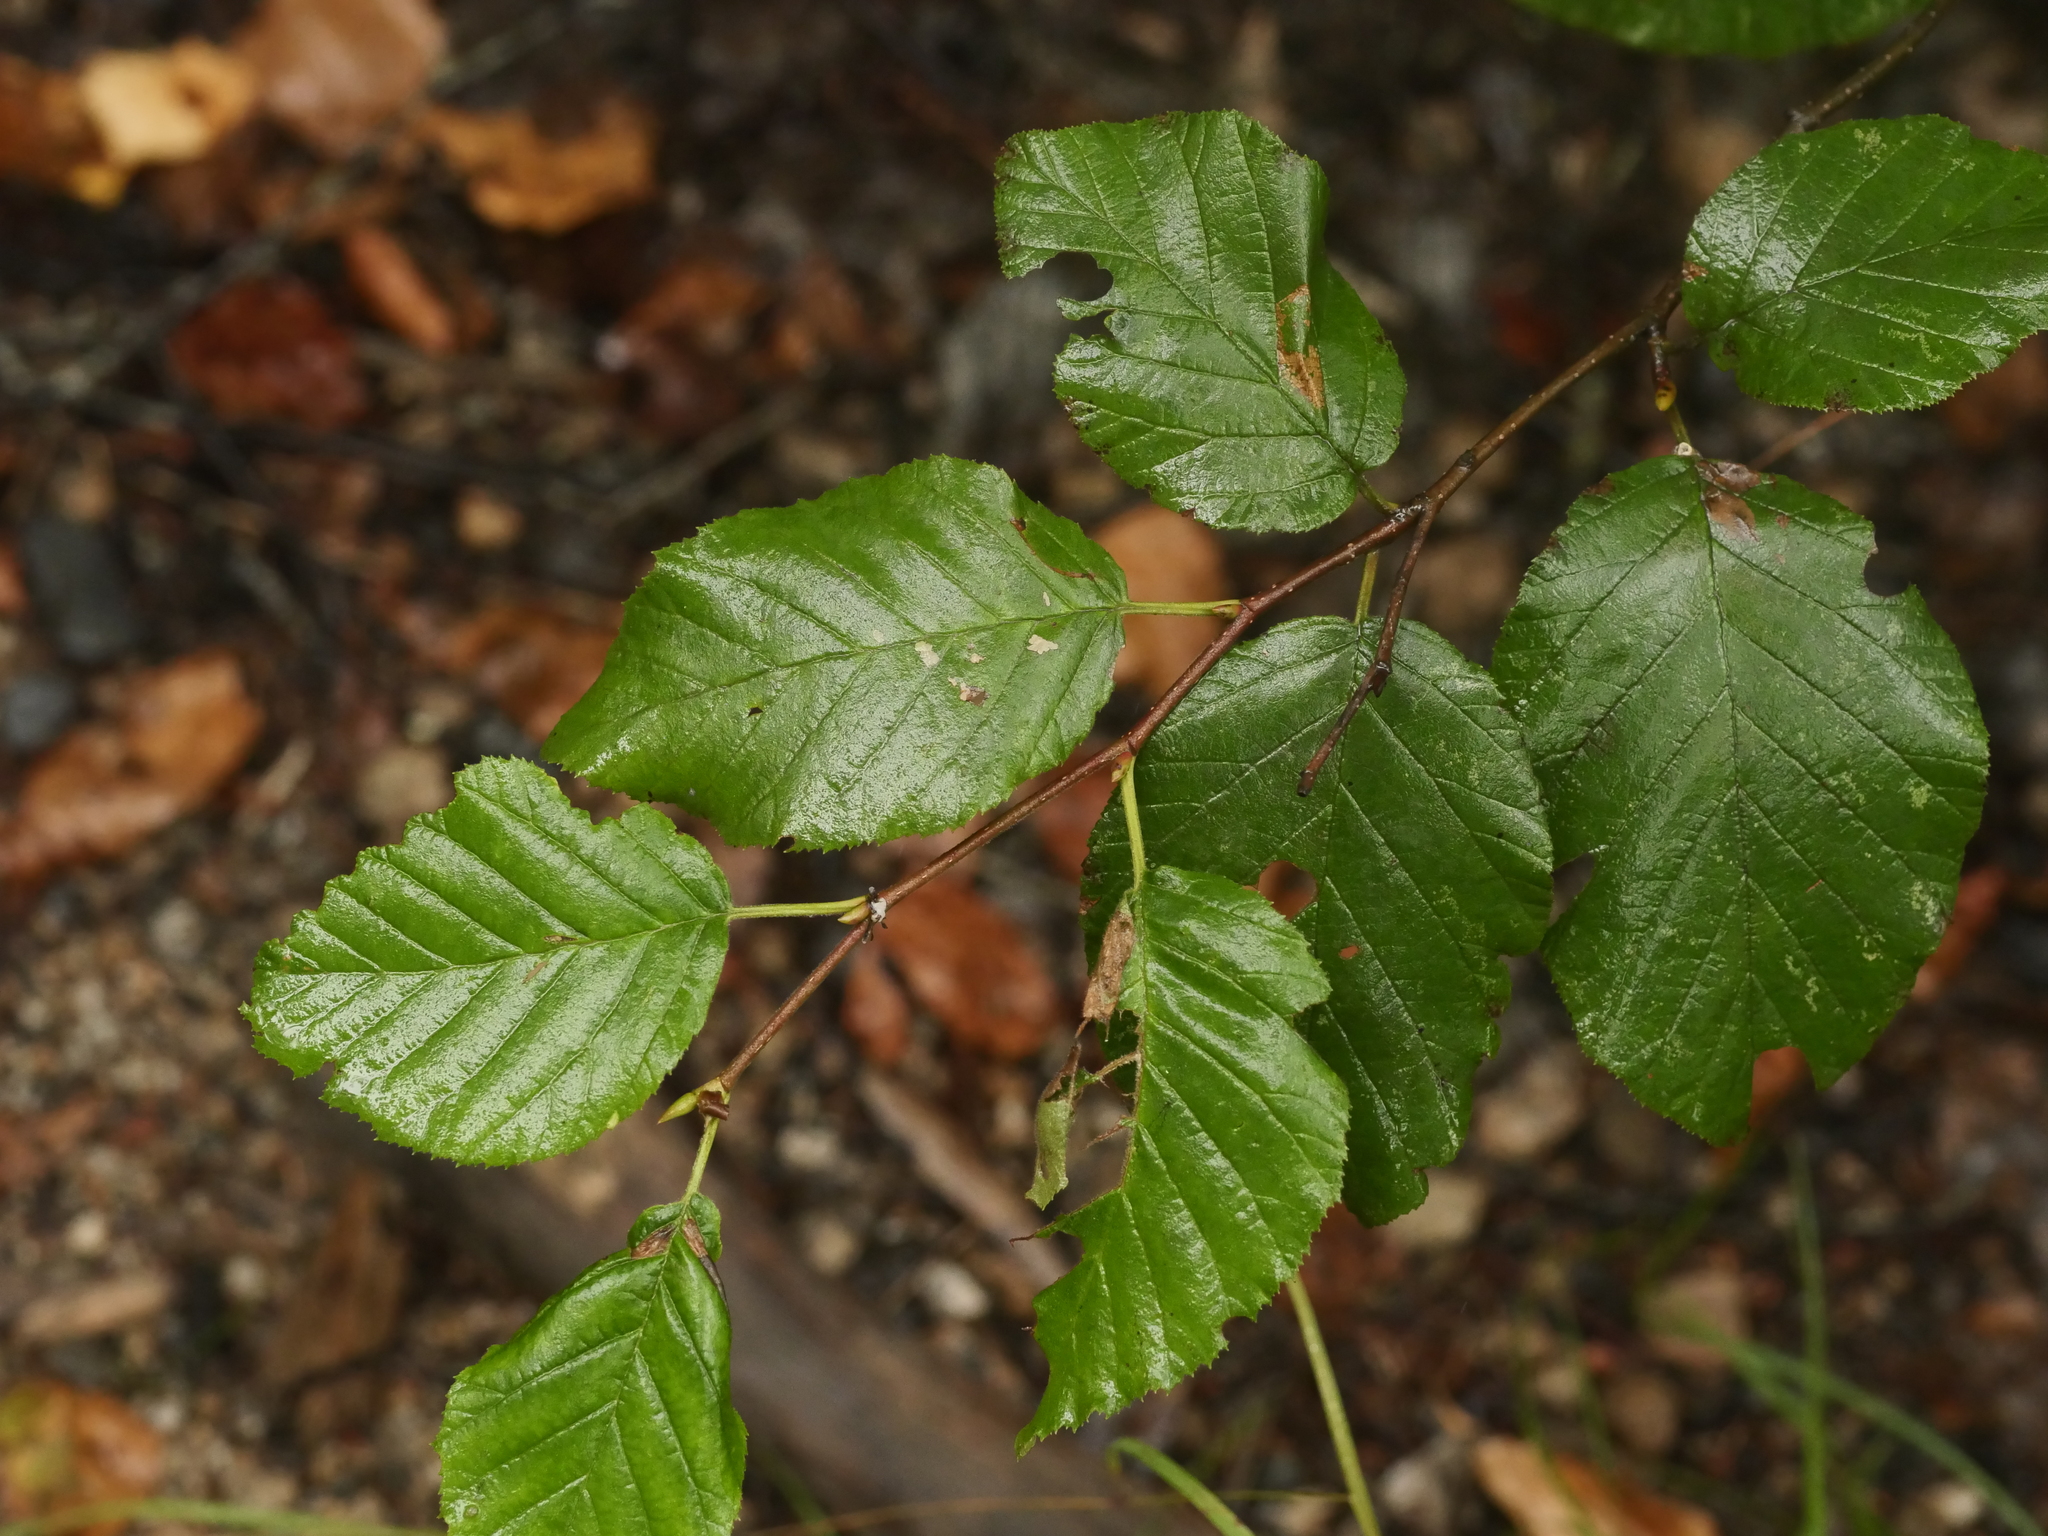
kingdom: Plantae
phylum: Tracheophyta
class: Magnoliopsida
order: Fagales
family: Betulaceae
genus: Alnus
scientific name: Alnus alnobetula
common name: Green alder
